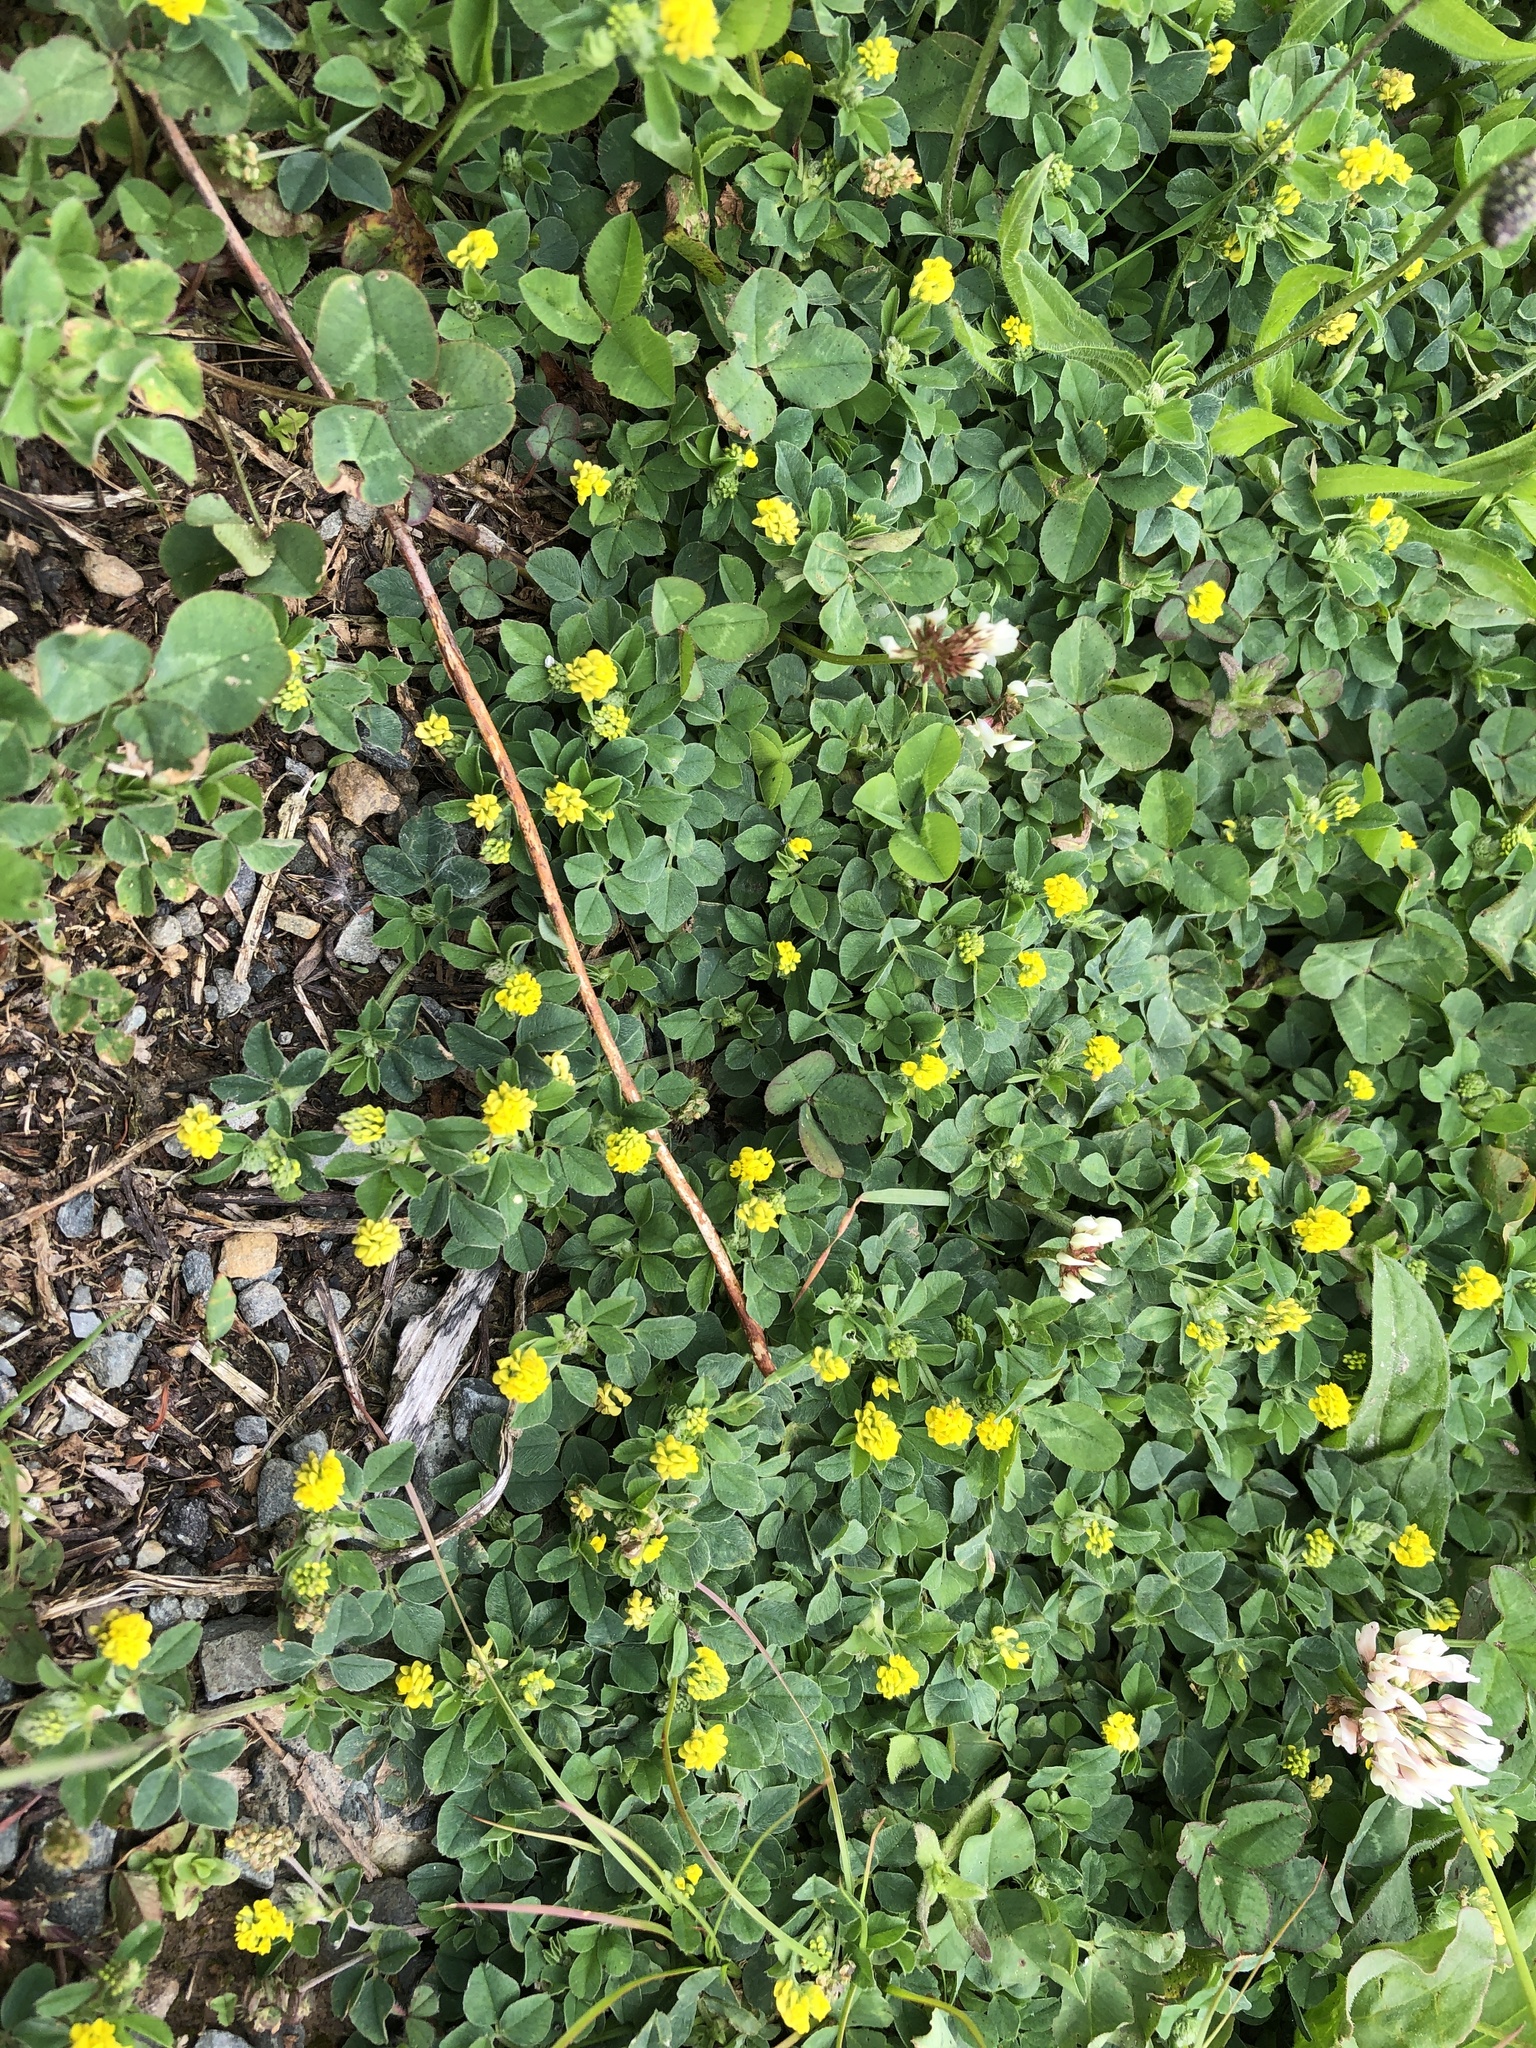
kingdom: Plantae
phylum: Tracheophyta
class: Magnoliopsida
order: Fabales
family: Fabaceae
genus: Medicago
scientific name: Medicago lupulina
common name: Black medick
